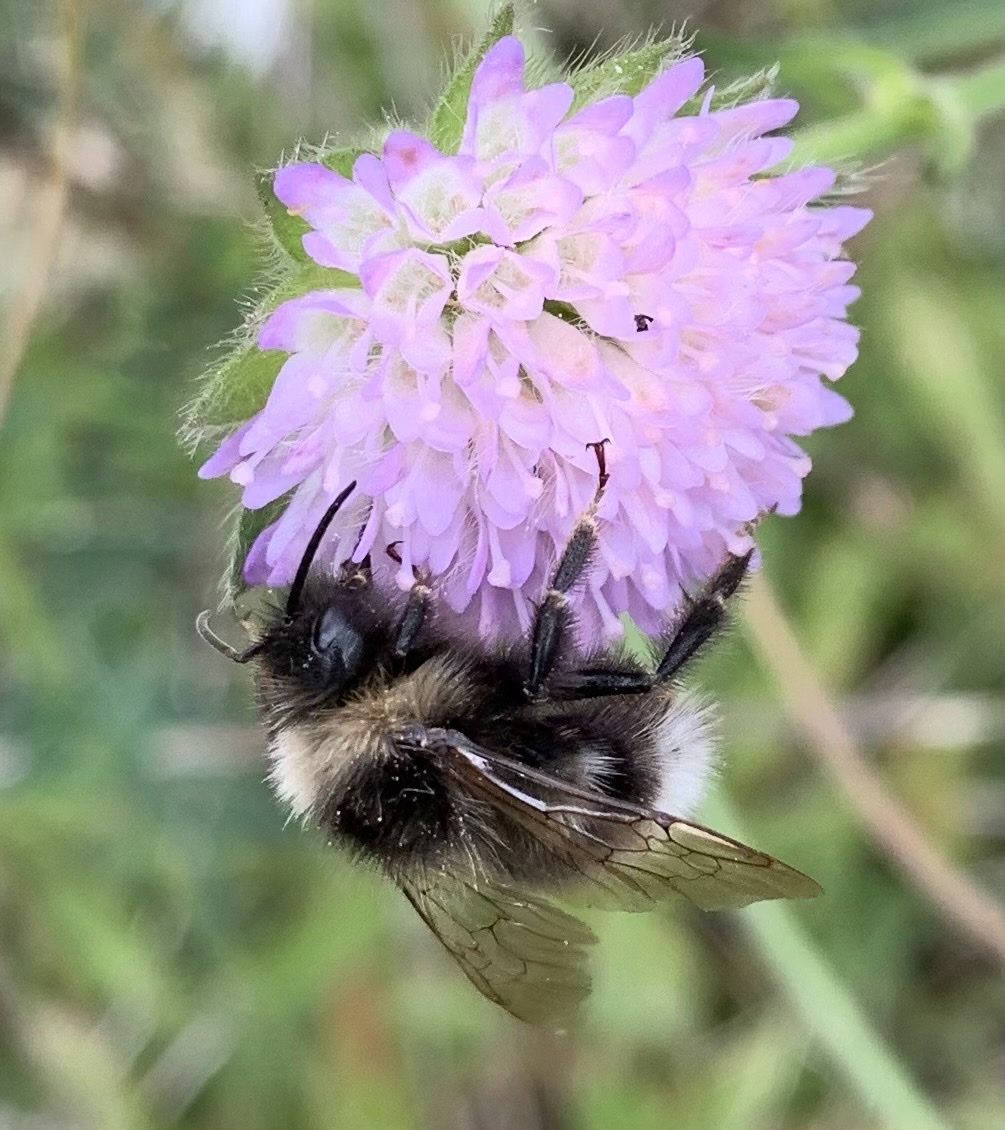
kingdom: Animalia
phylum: Arthropoda
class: Insecta
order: Hymenoptera
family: Apidae
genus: Bombus
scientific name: Bombus bohemicus
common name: Gypsy cuckoo bee
